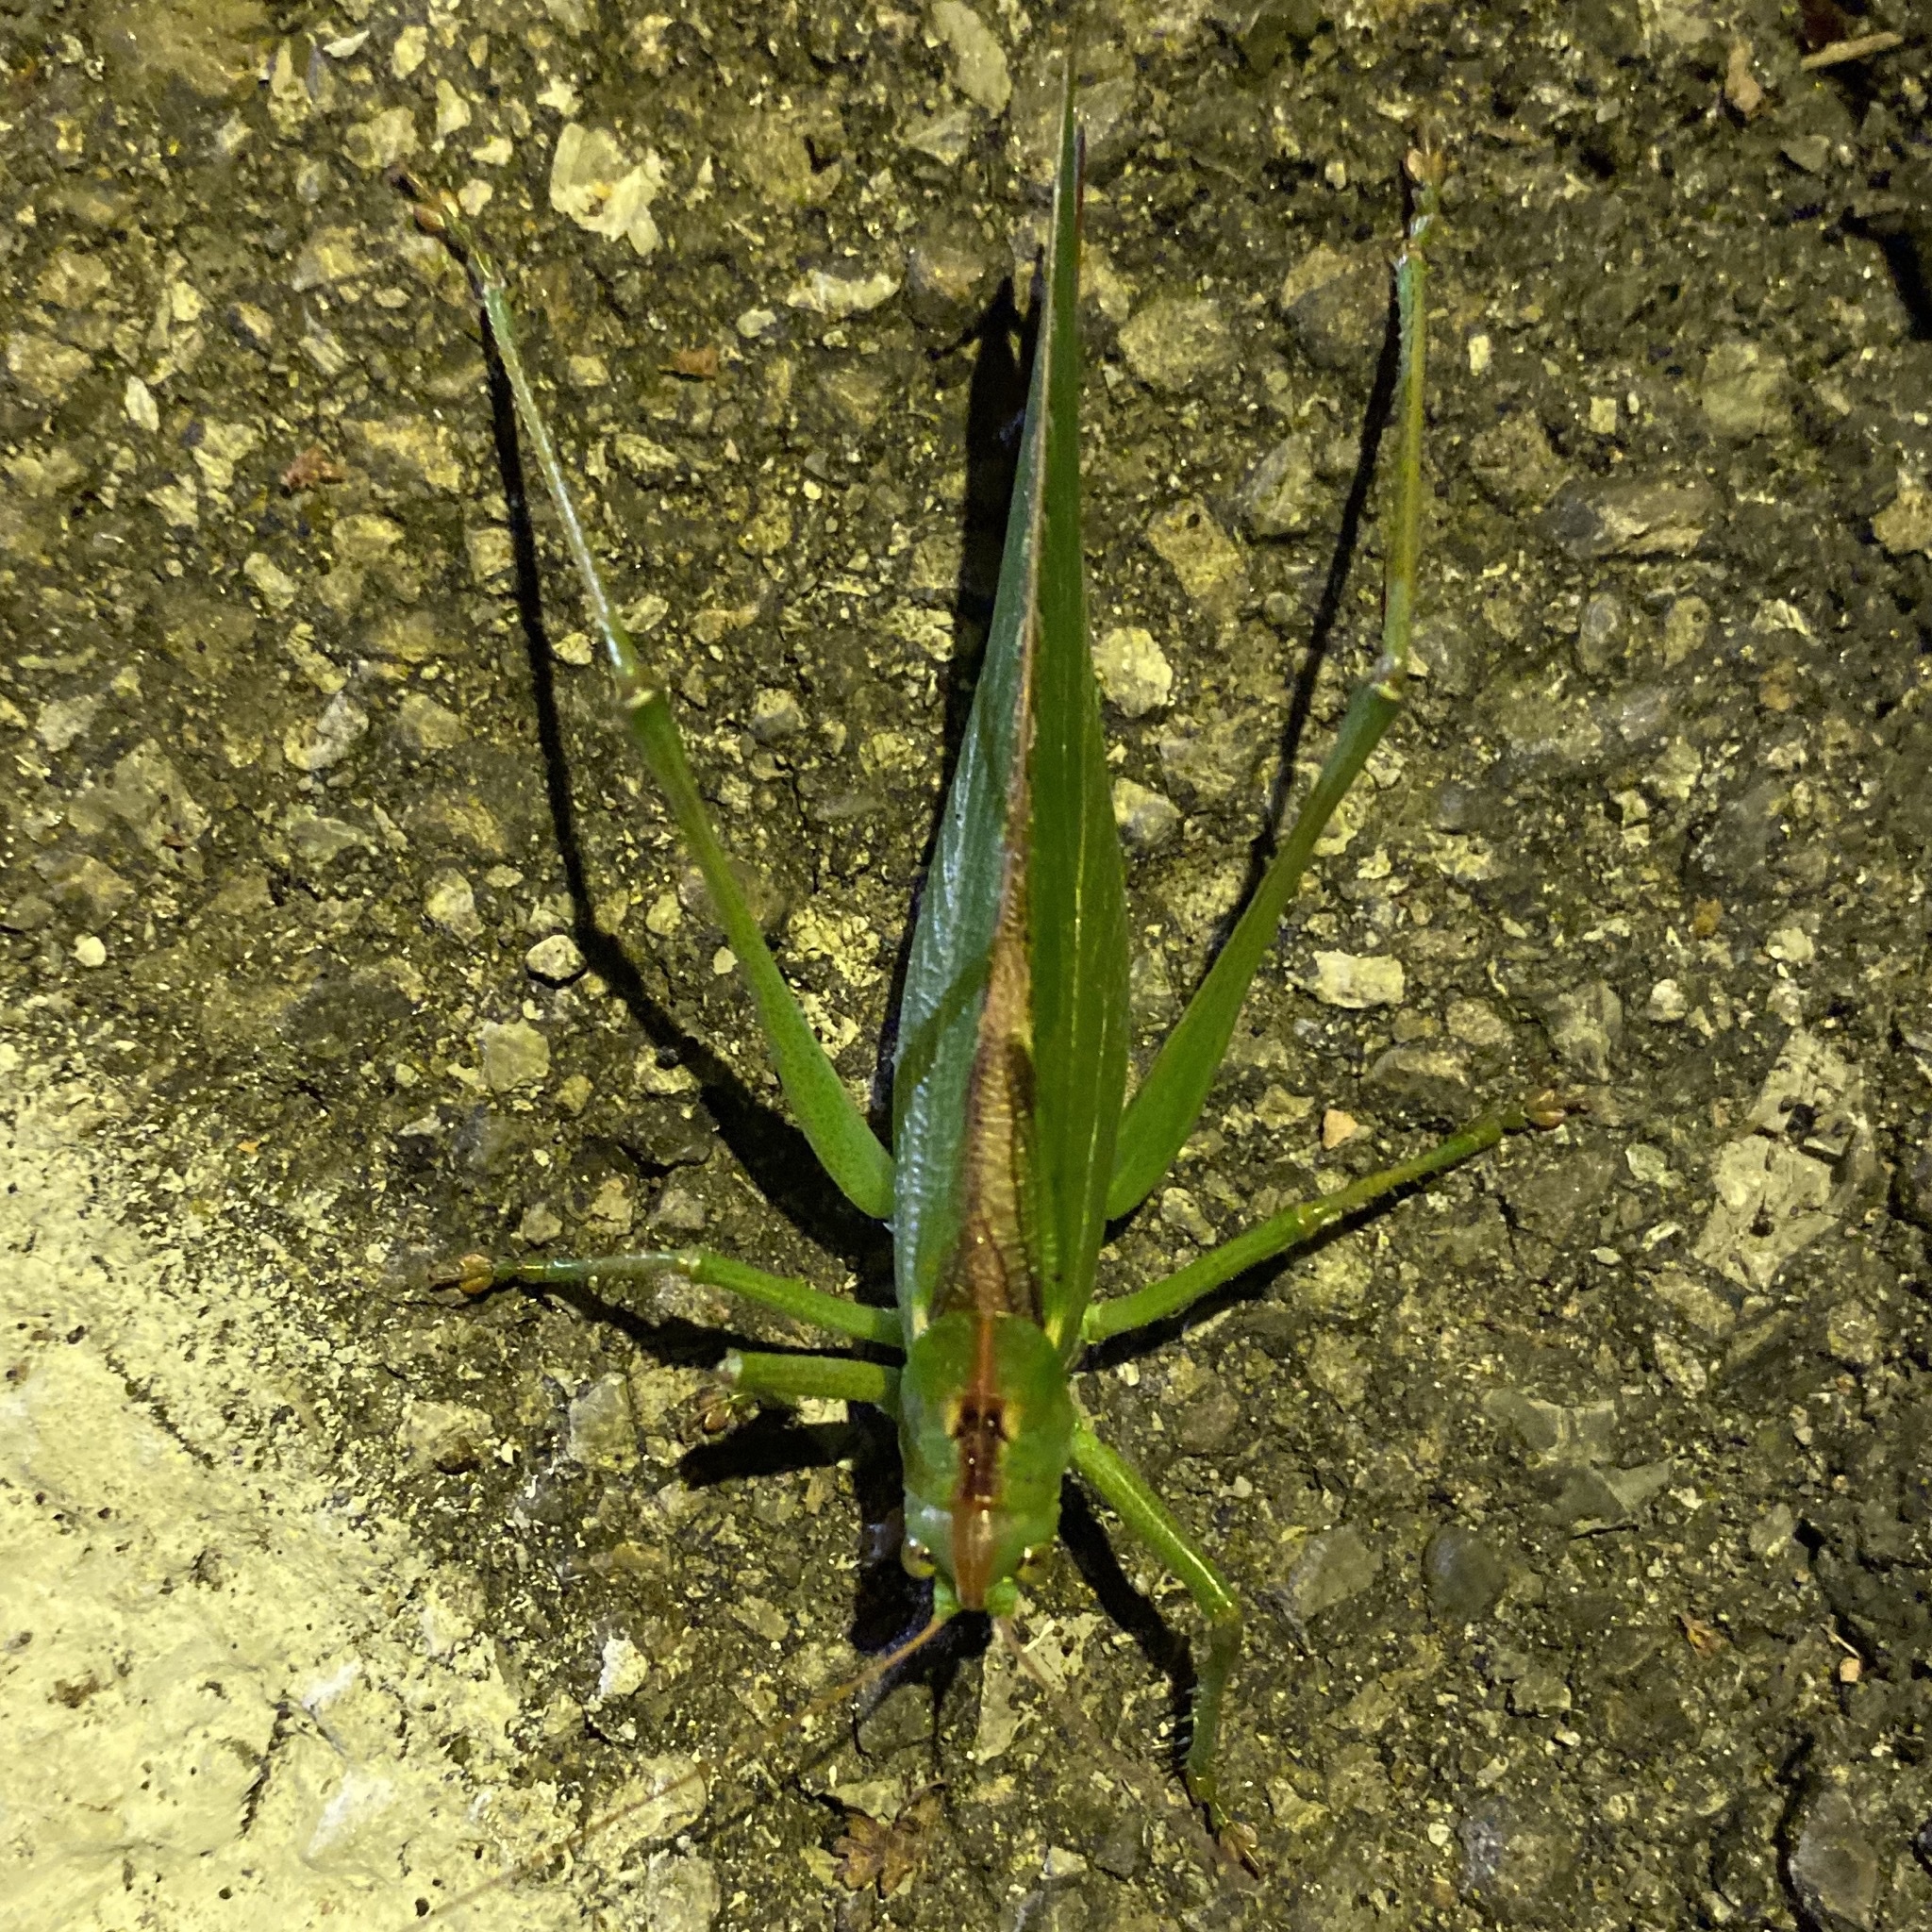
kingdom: Animalia
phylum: Arthropoda
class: Insecta
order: Orthoptera
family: Tettigoniidae
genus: Tettigonia
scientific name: Tettigonia viridissima
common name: Great green bush-cricket
